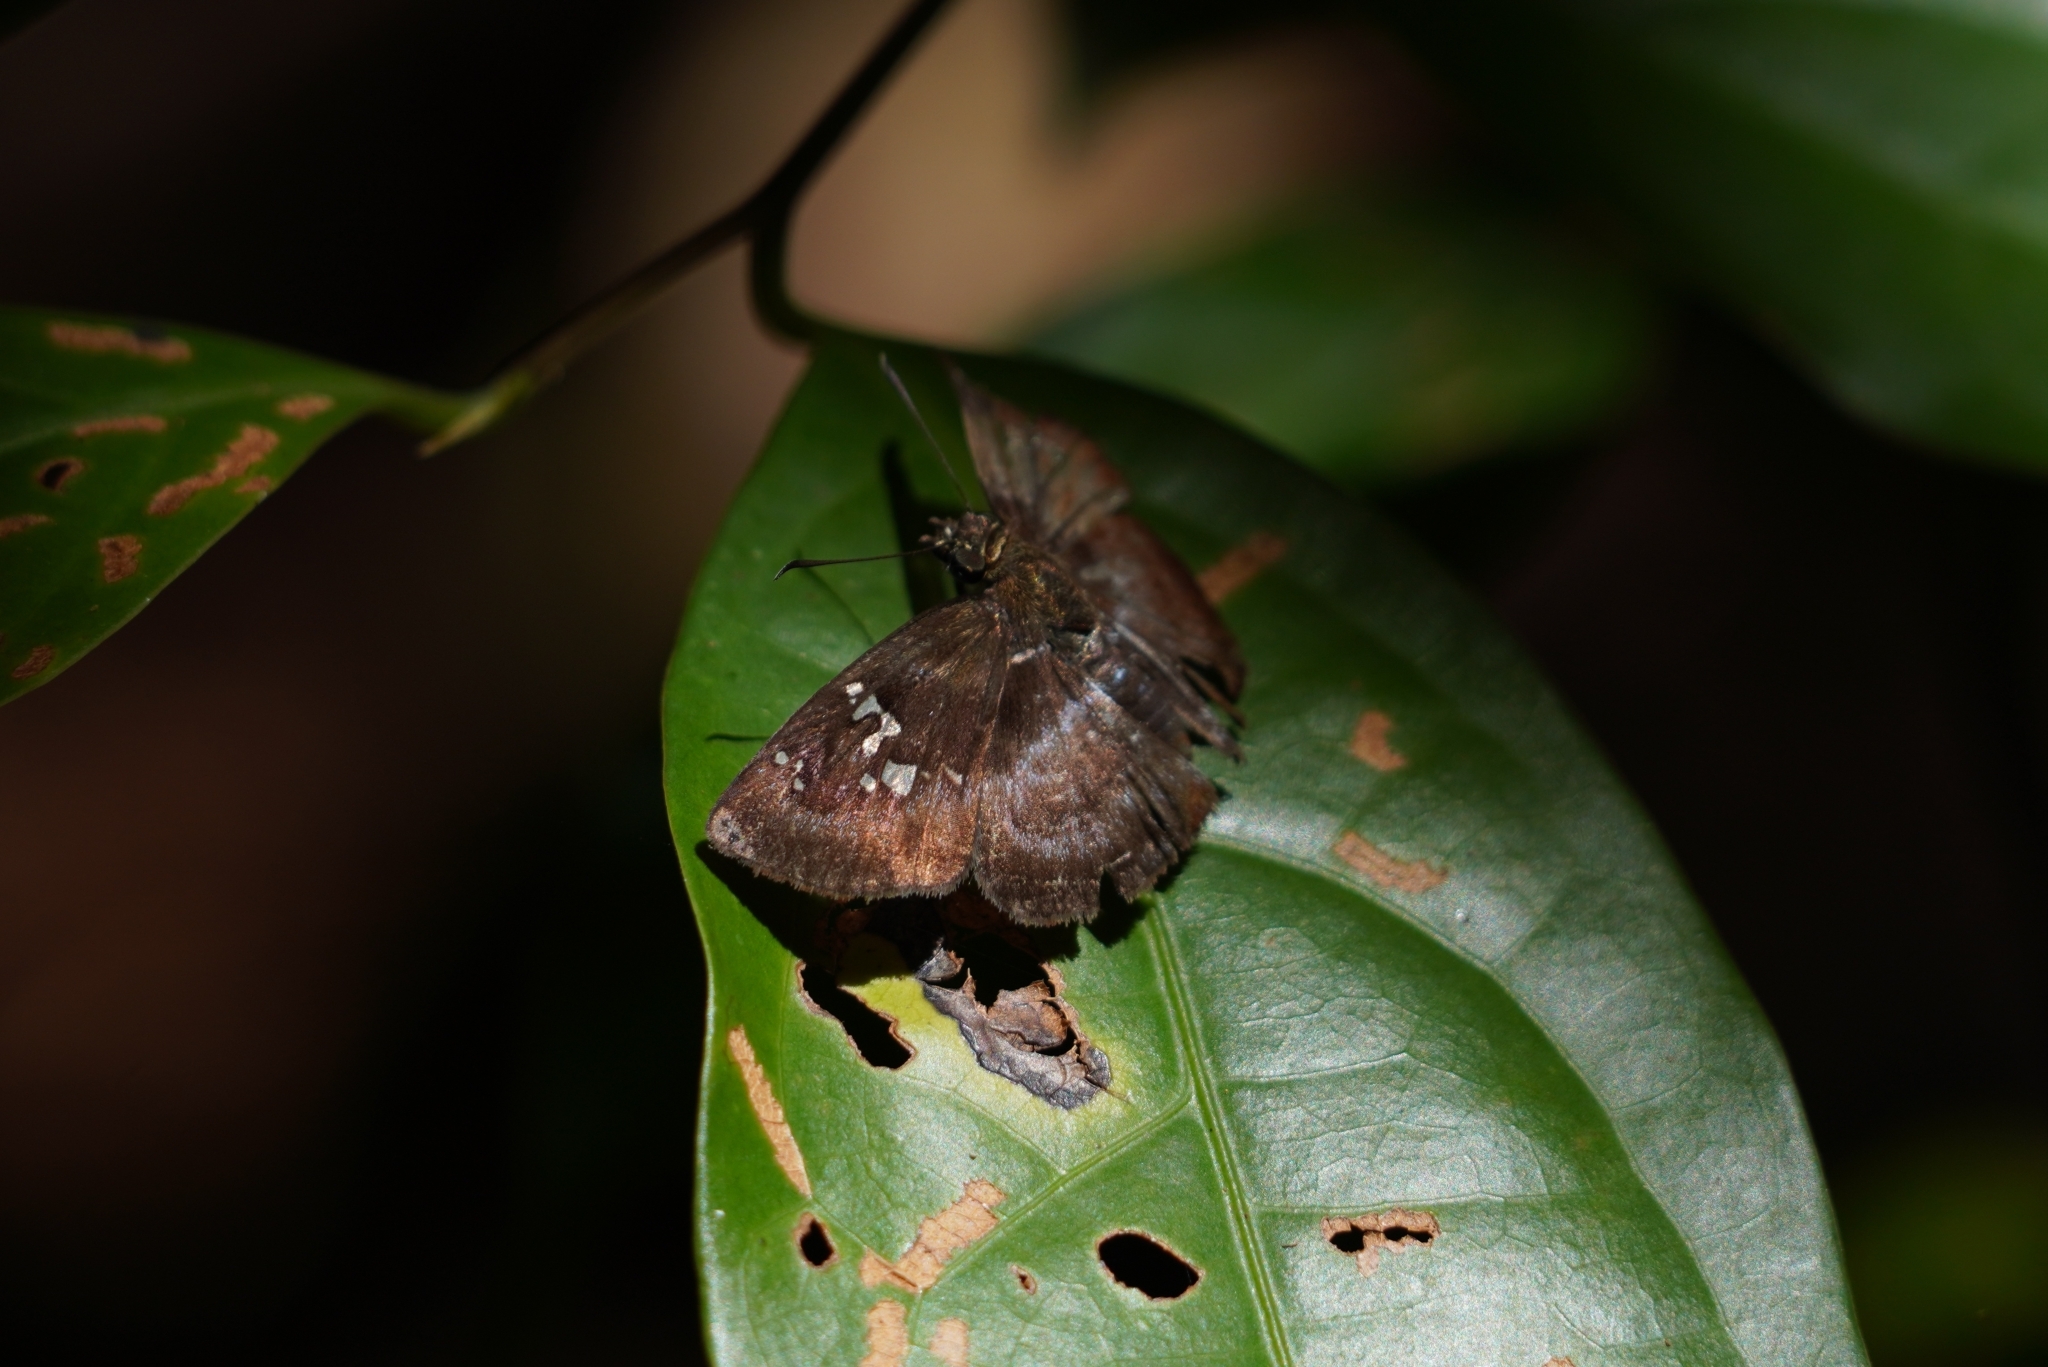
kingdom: Animalia
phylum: Arthropoda
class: Insecta
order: Lepidoptera
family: Hesperiidae
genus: Quadrus
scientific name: Quadrus cerialis
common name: Common blue-skipper
